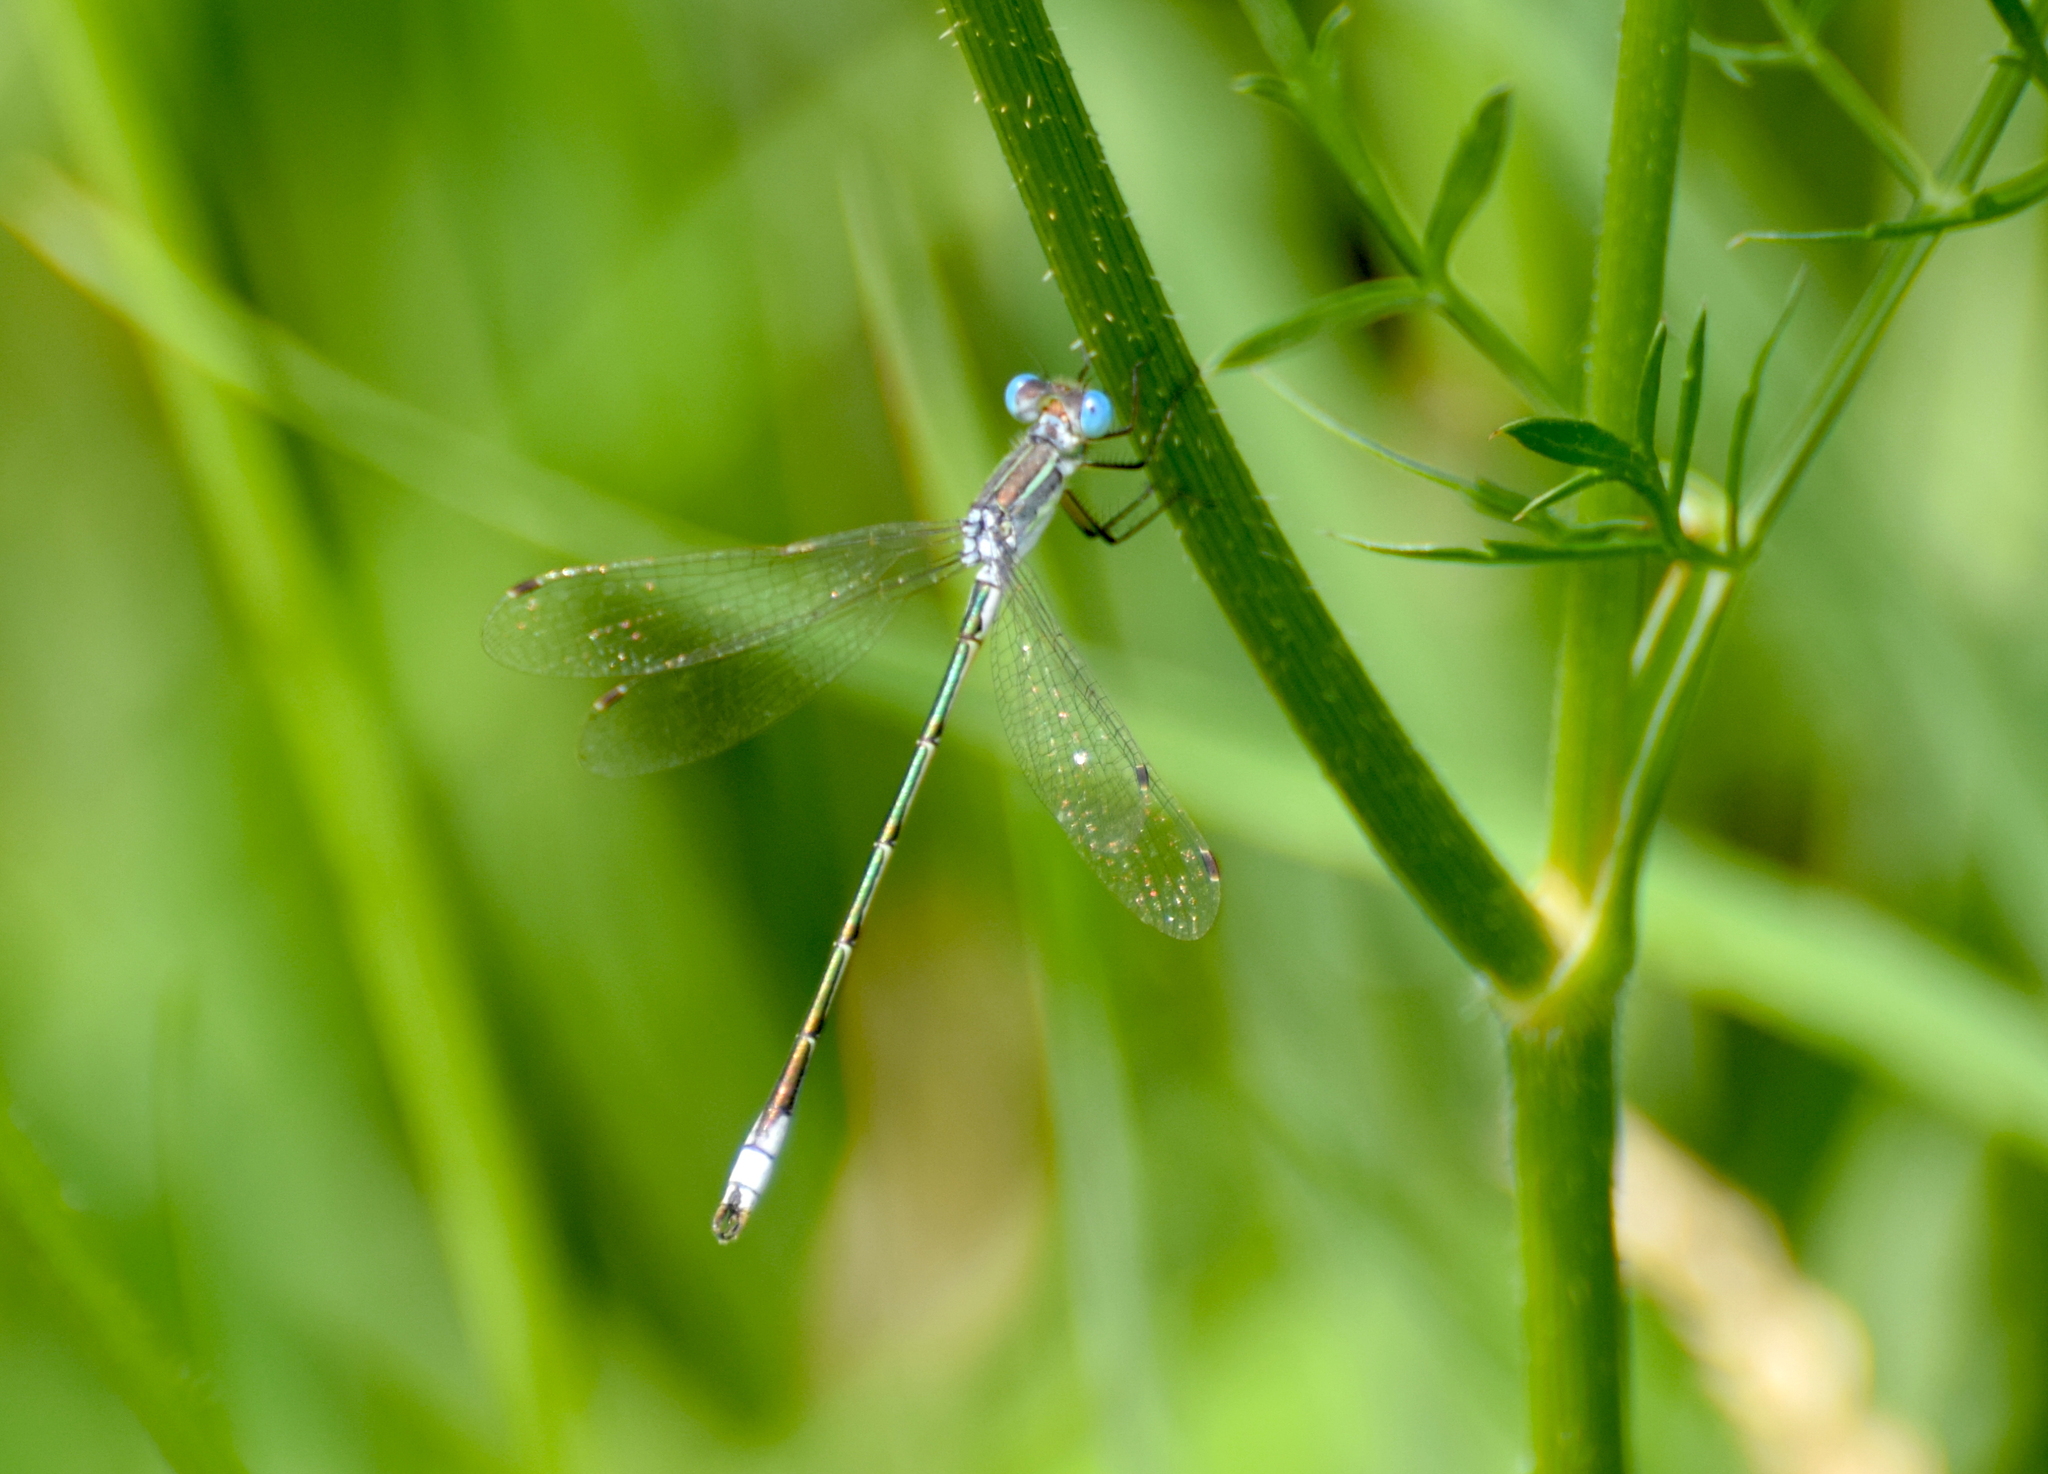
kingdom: Animalia
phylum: Arthropoda
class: Insecta
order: Odonata
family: Lestidae
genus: Lestes
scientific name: Lestes unguiculatus
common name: Lyre-tipped spreadwing
